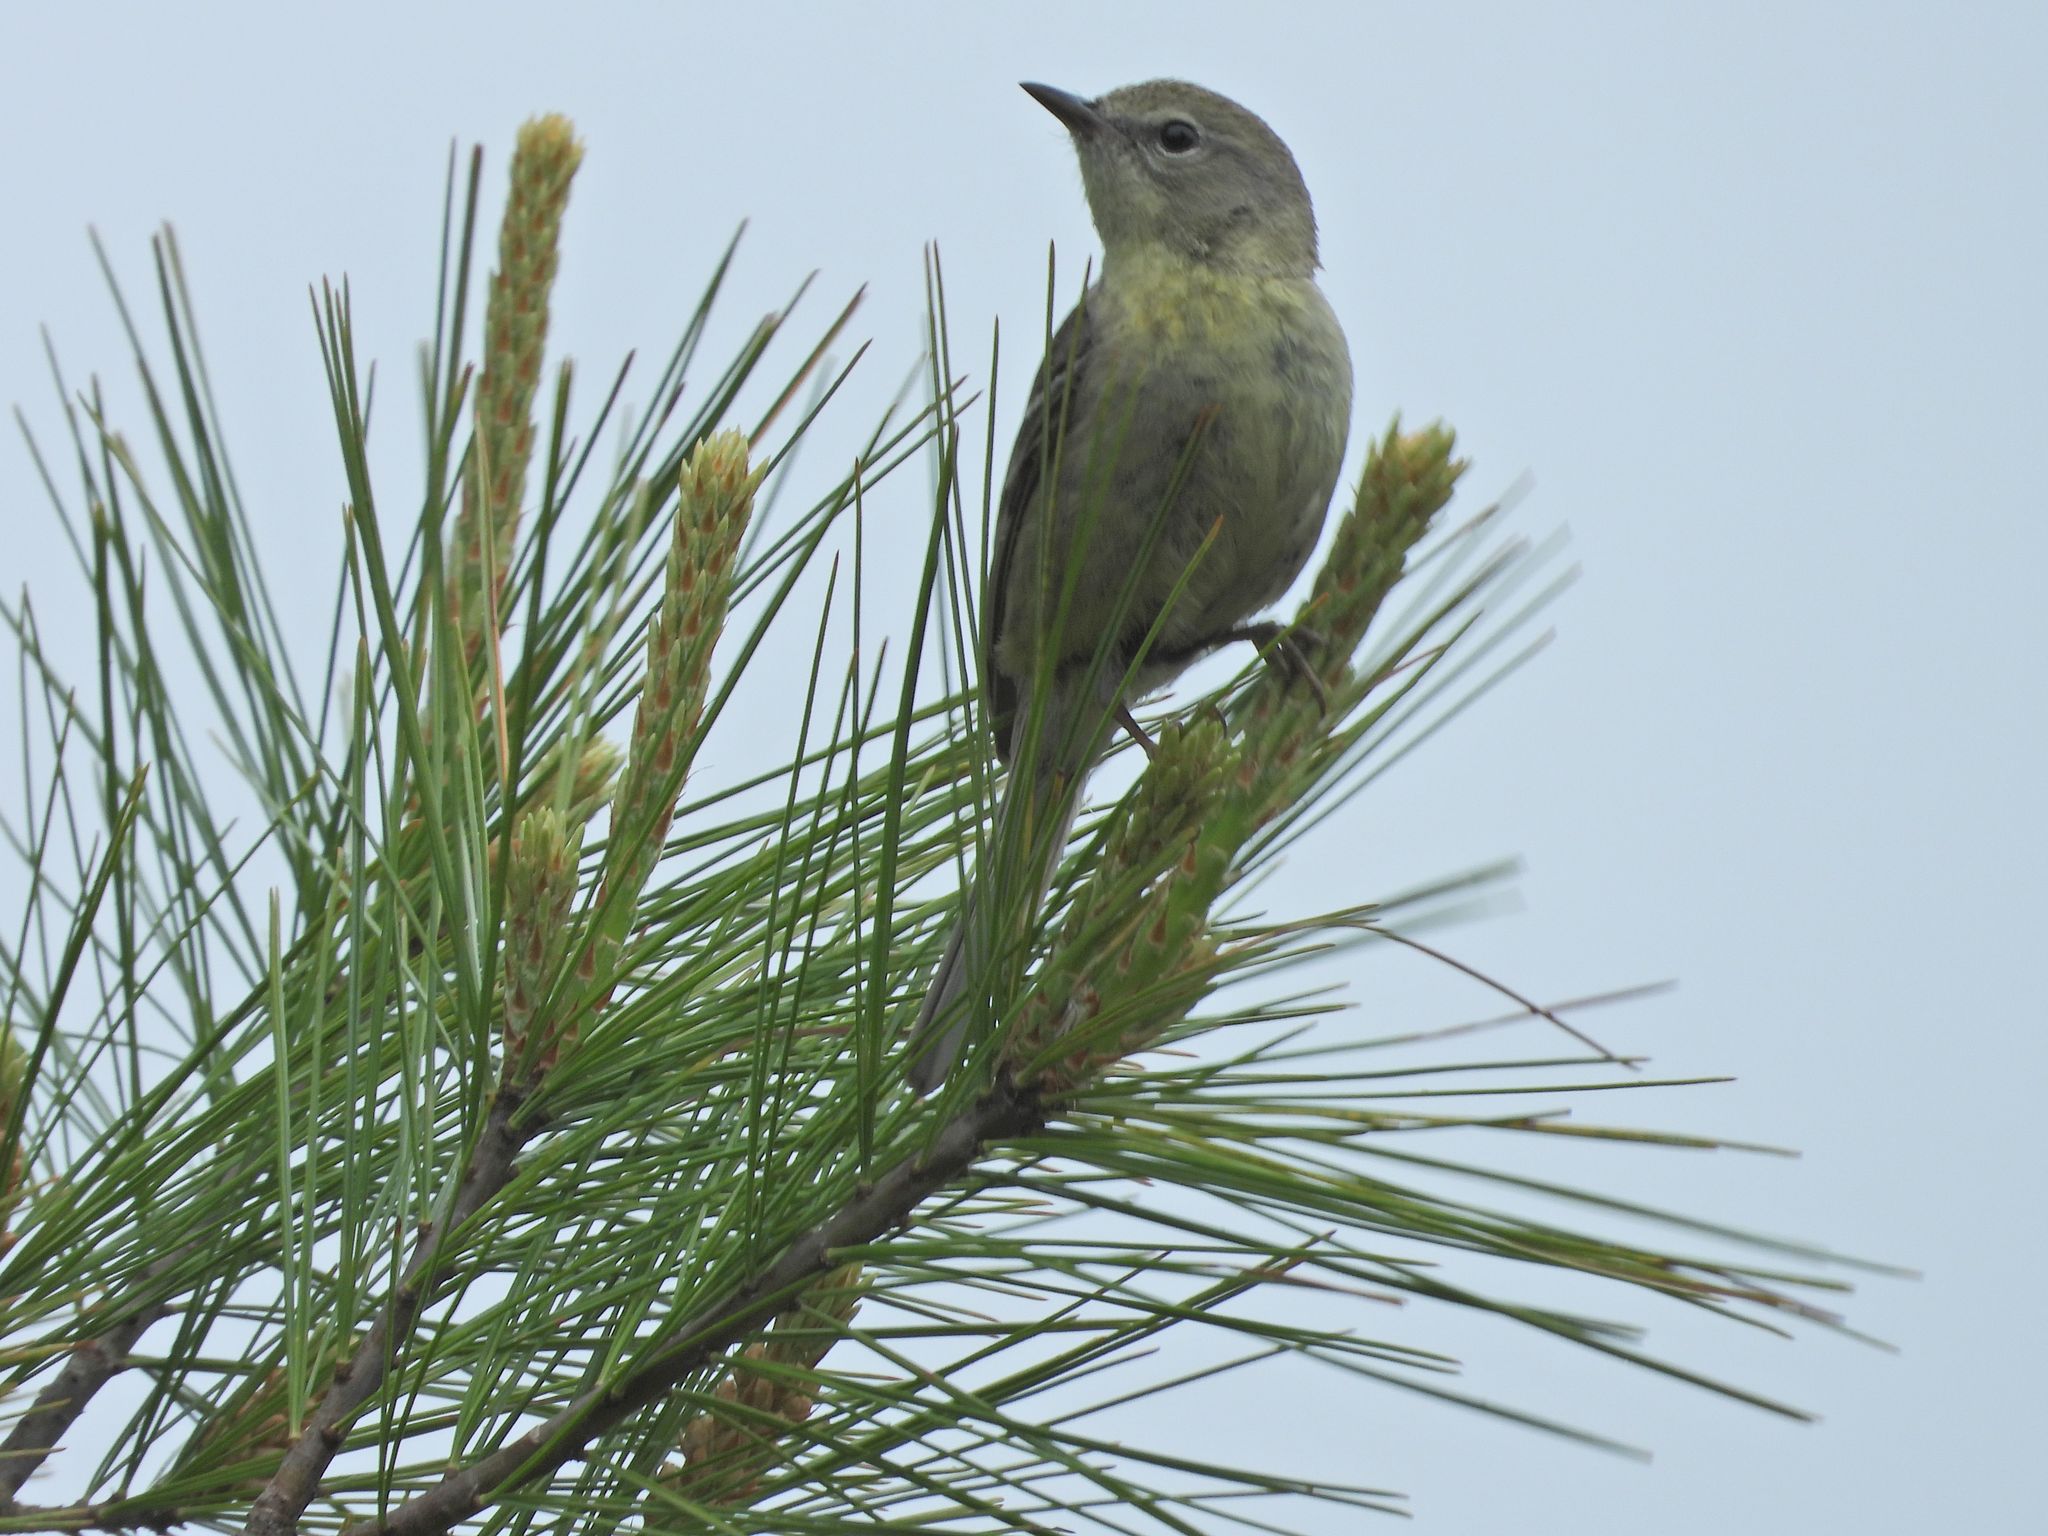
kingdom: Animalia
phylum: Chordata
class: Aves
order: Passeriformes
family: Parulidae
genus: Setophaga
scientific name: Setophaga pinus
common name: Pine warbler
